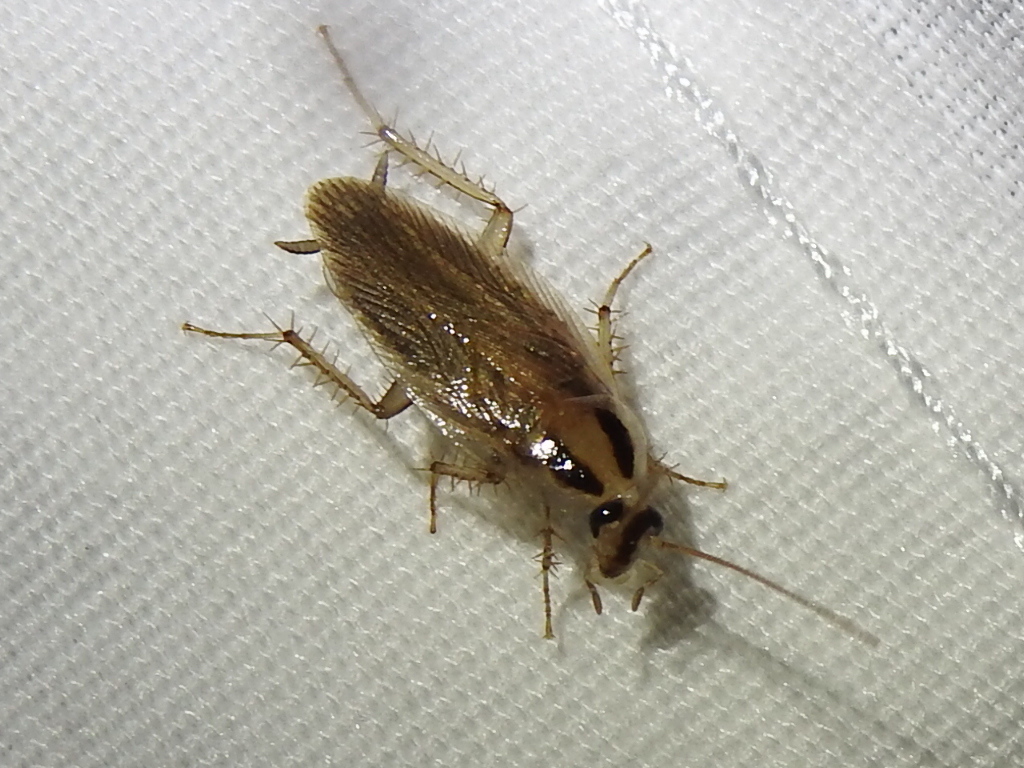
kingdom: Animalia
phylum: Arthropoda
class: Insecta
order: Blattodea
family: Ectobiidae
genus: Blattella
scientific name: Blattella vaga
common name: Field cockroach
